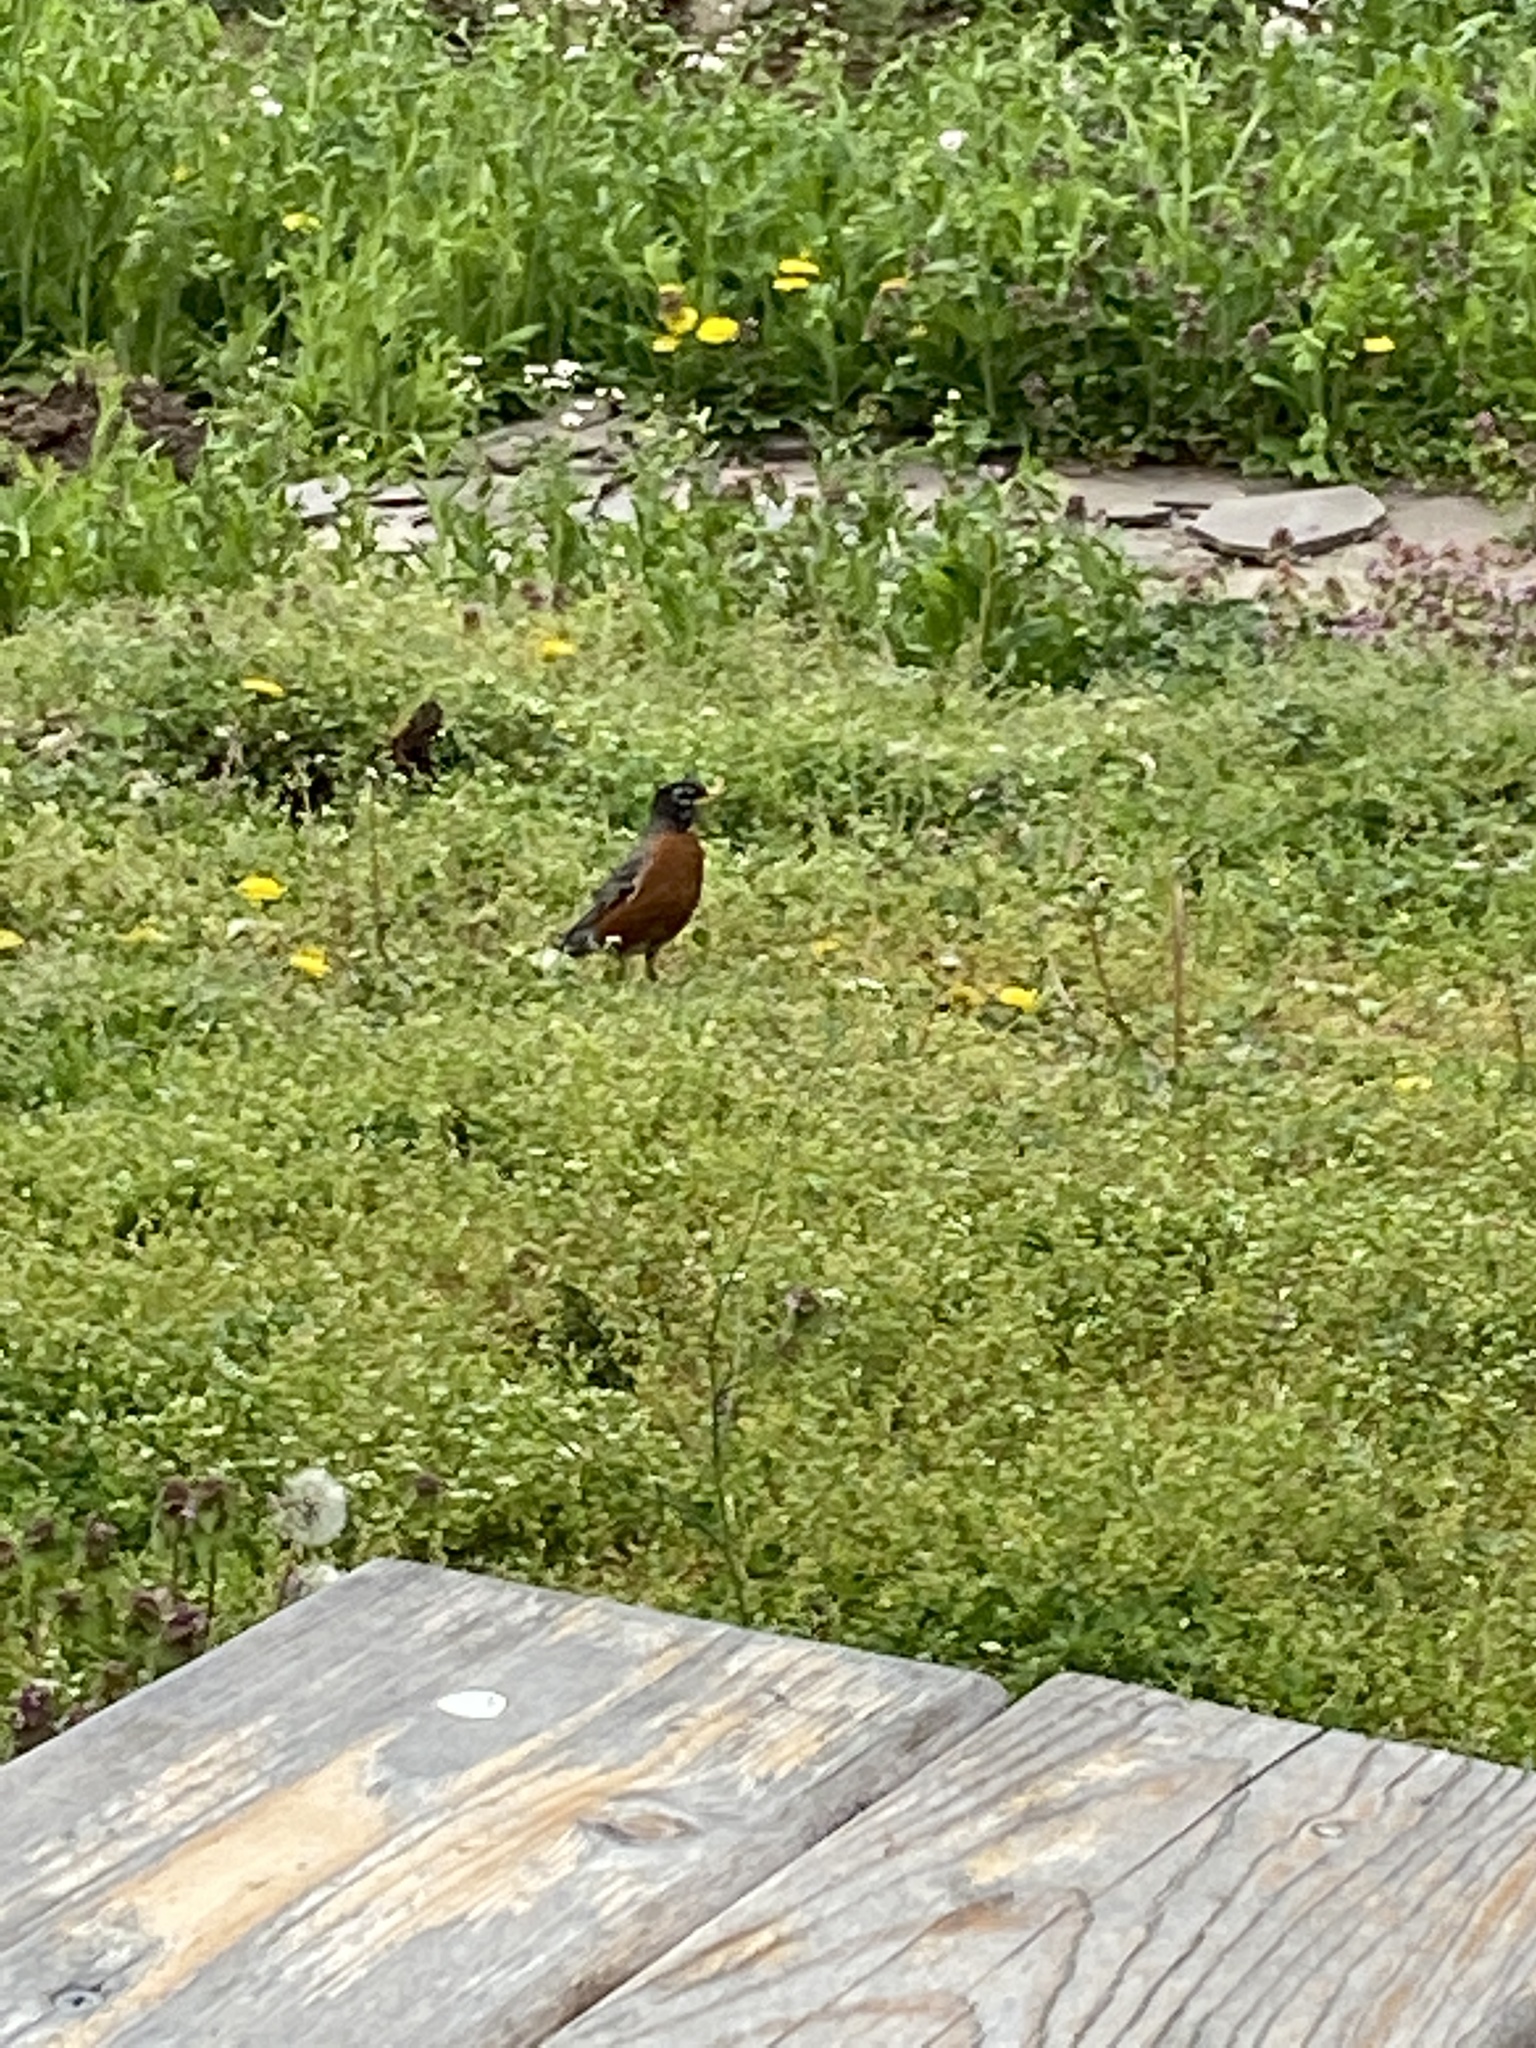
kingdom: Animalia
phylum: Chordata
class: Aves
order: Passeriformes
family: Turdidae
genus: Turdus
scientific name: Turdus migratorius
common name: American robin
